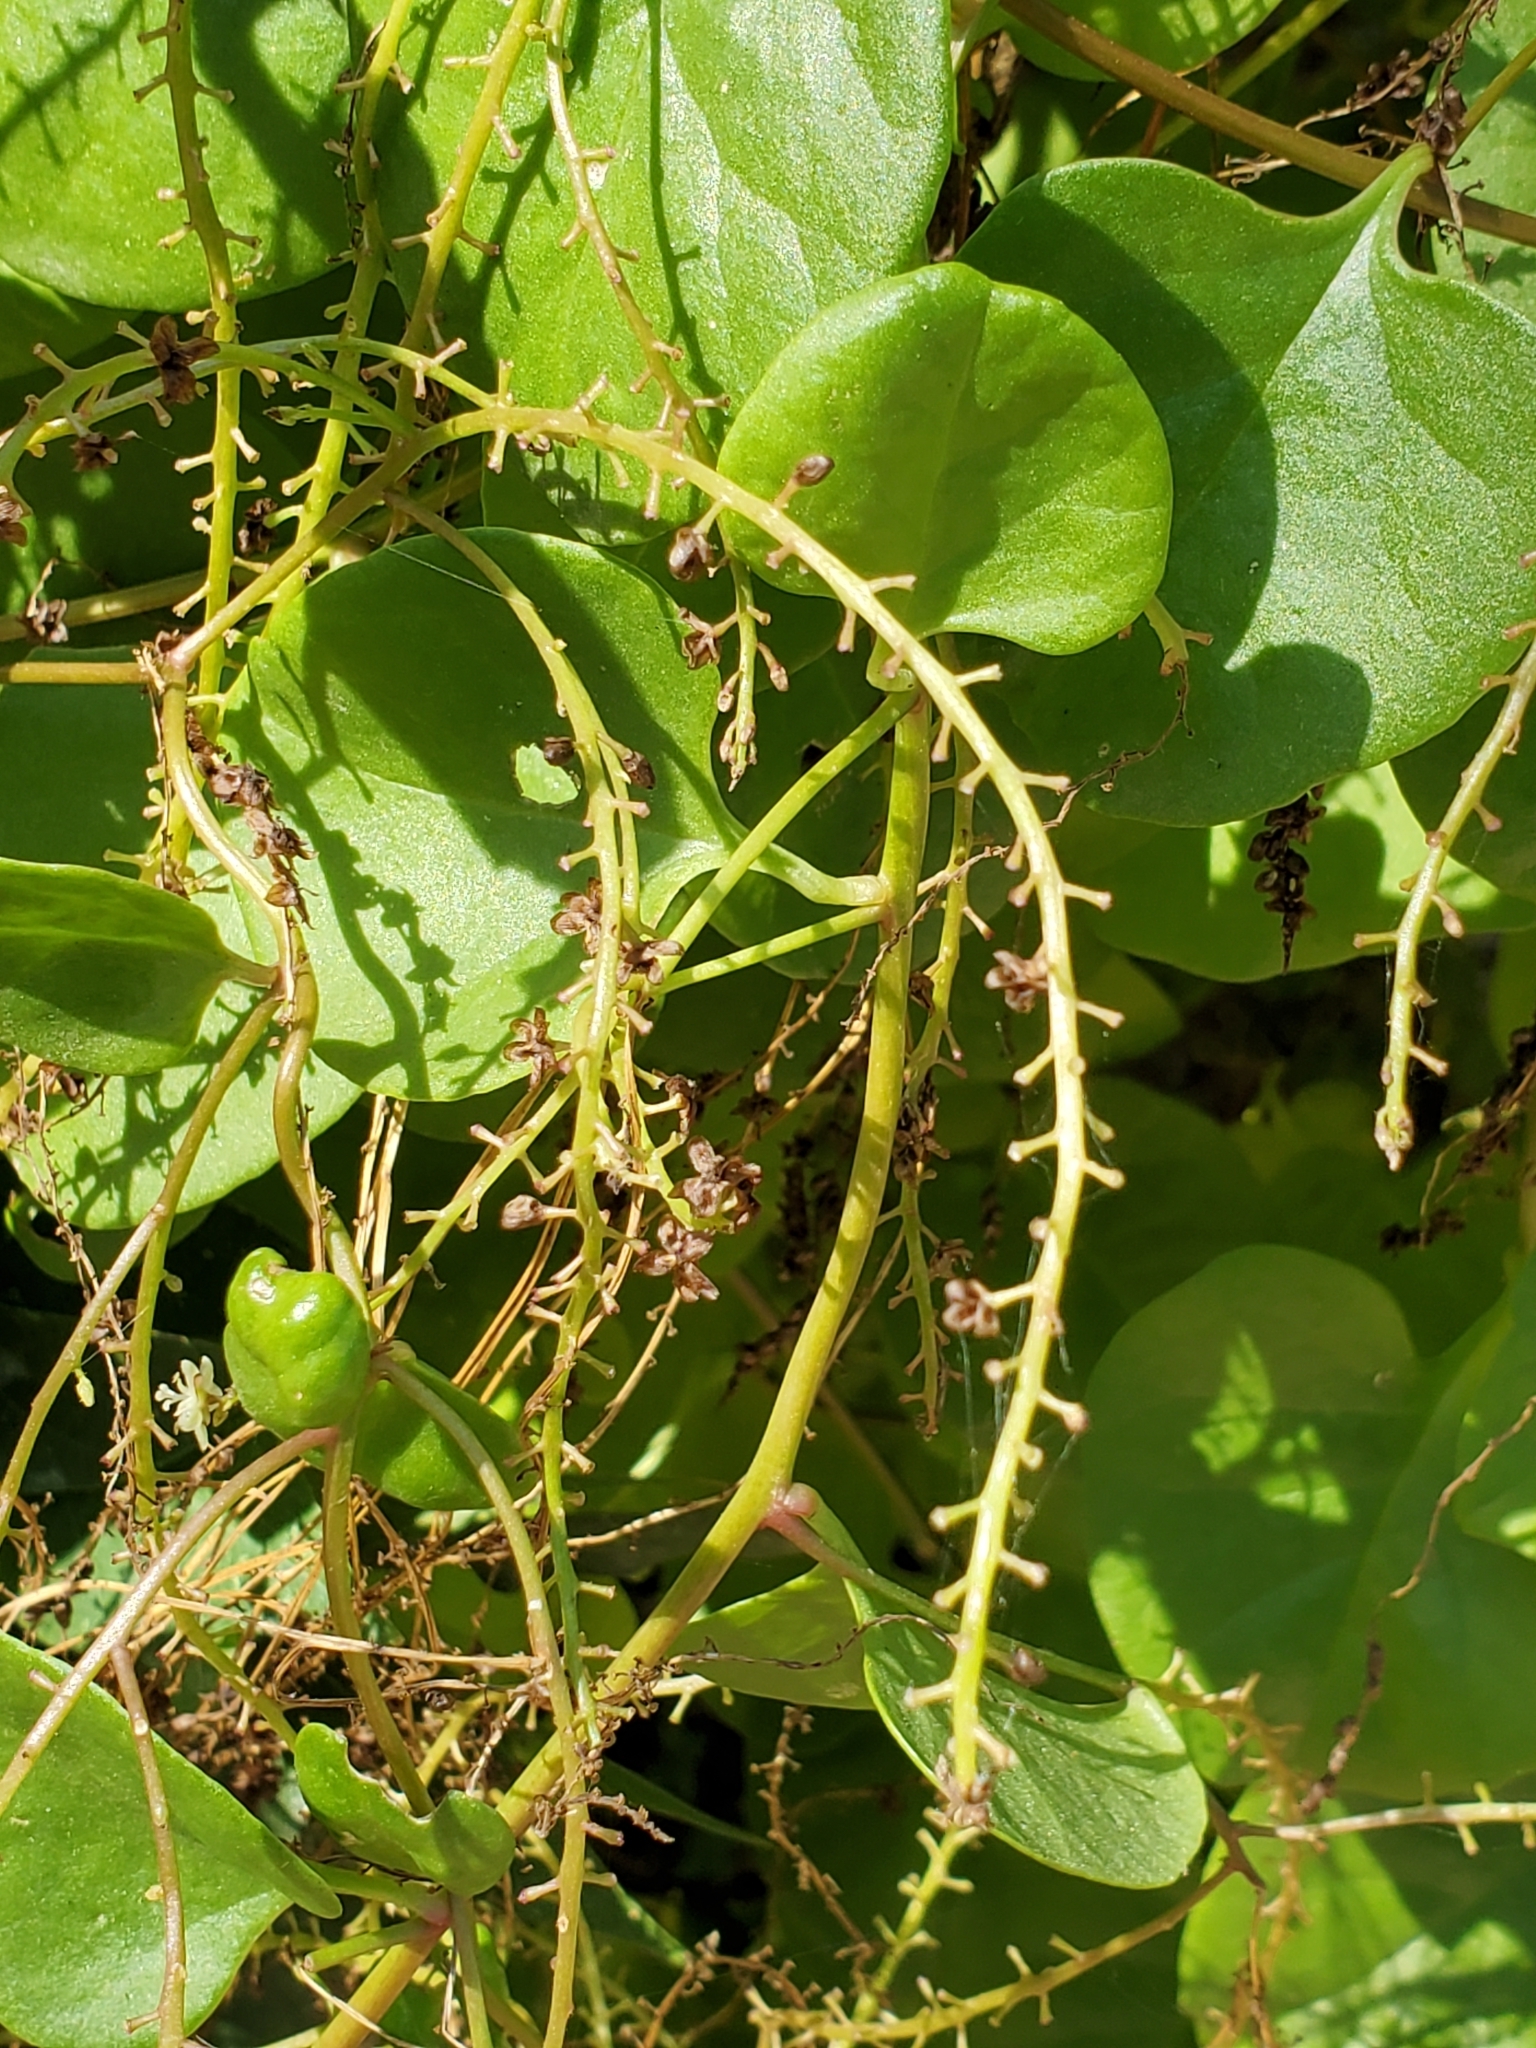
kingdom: Plantae
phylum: Tracheophyta
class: Magnoliopsida
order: Ranunculales
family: Menispermaceae
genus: Cocculus
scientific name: Cocculus carolinus
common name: Carolina moonseed
